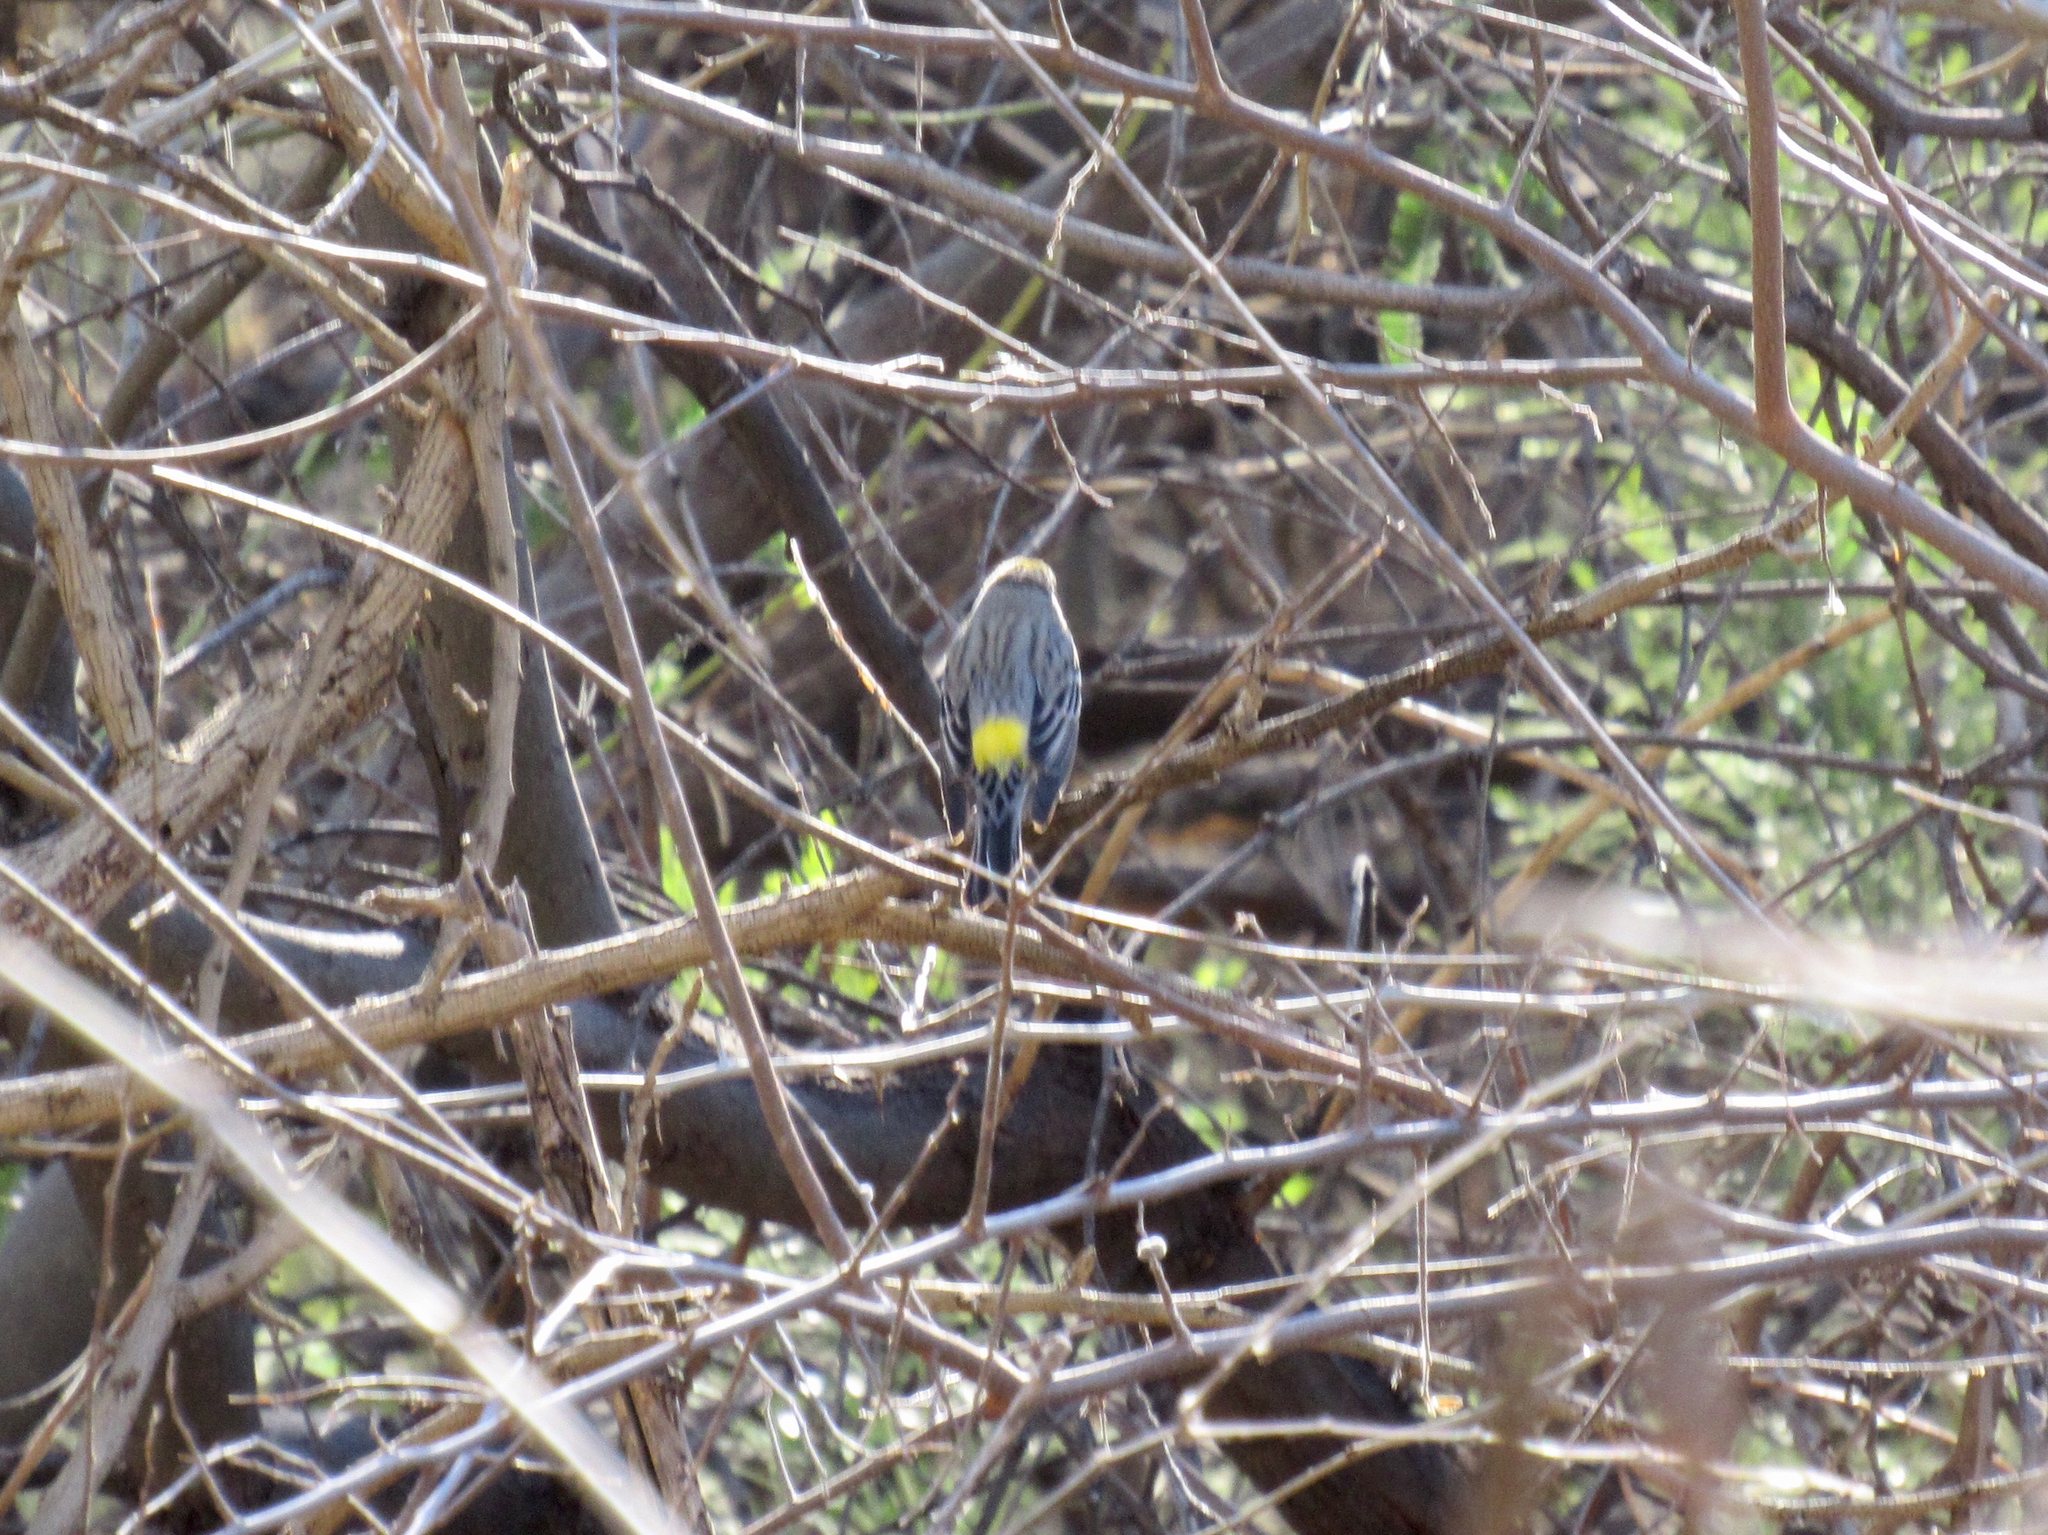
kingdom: Animalia
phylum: Chordata
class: Aves
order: Passeriformes
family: Parulidae
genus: Setophaga
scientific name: Setophaga coronata
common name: Myrtle warbler
